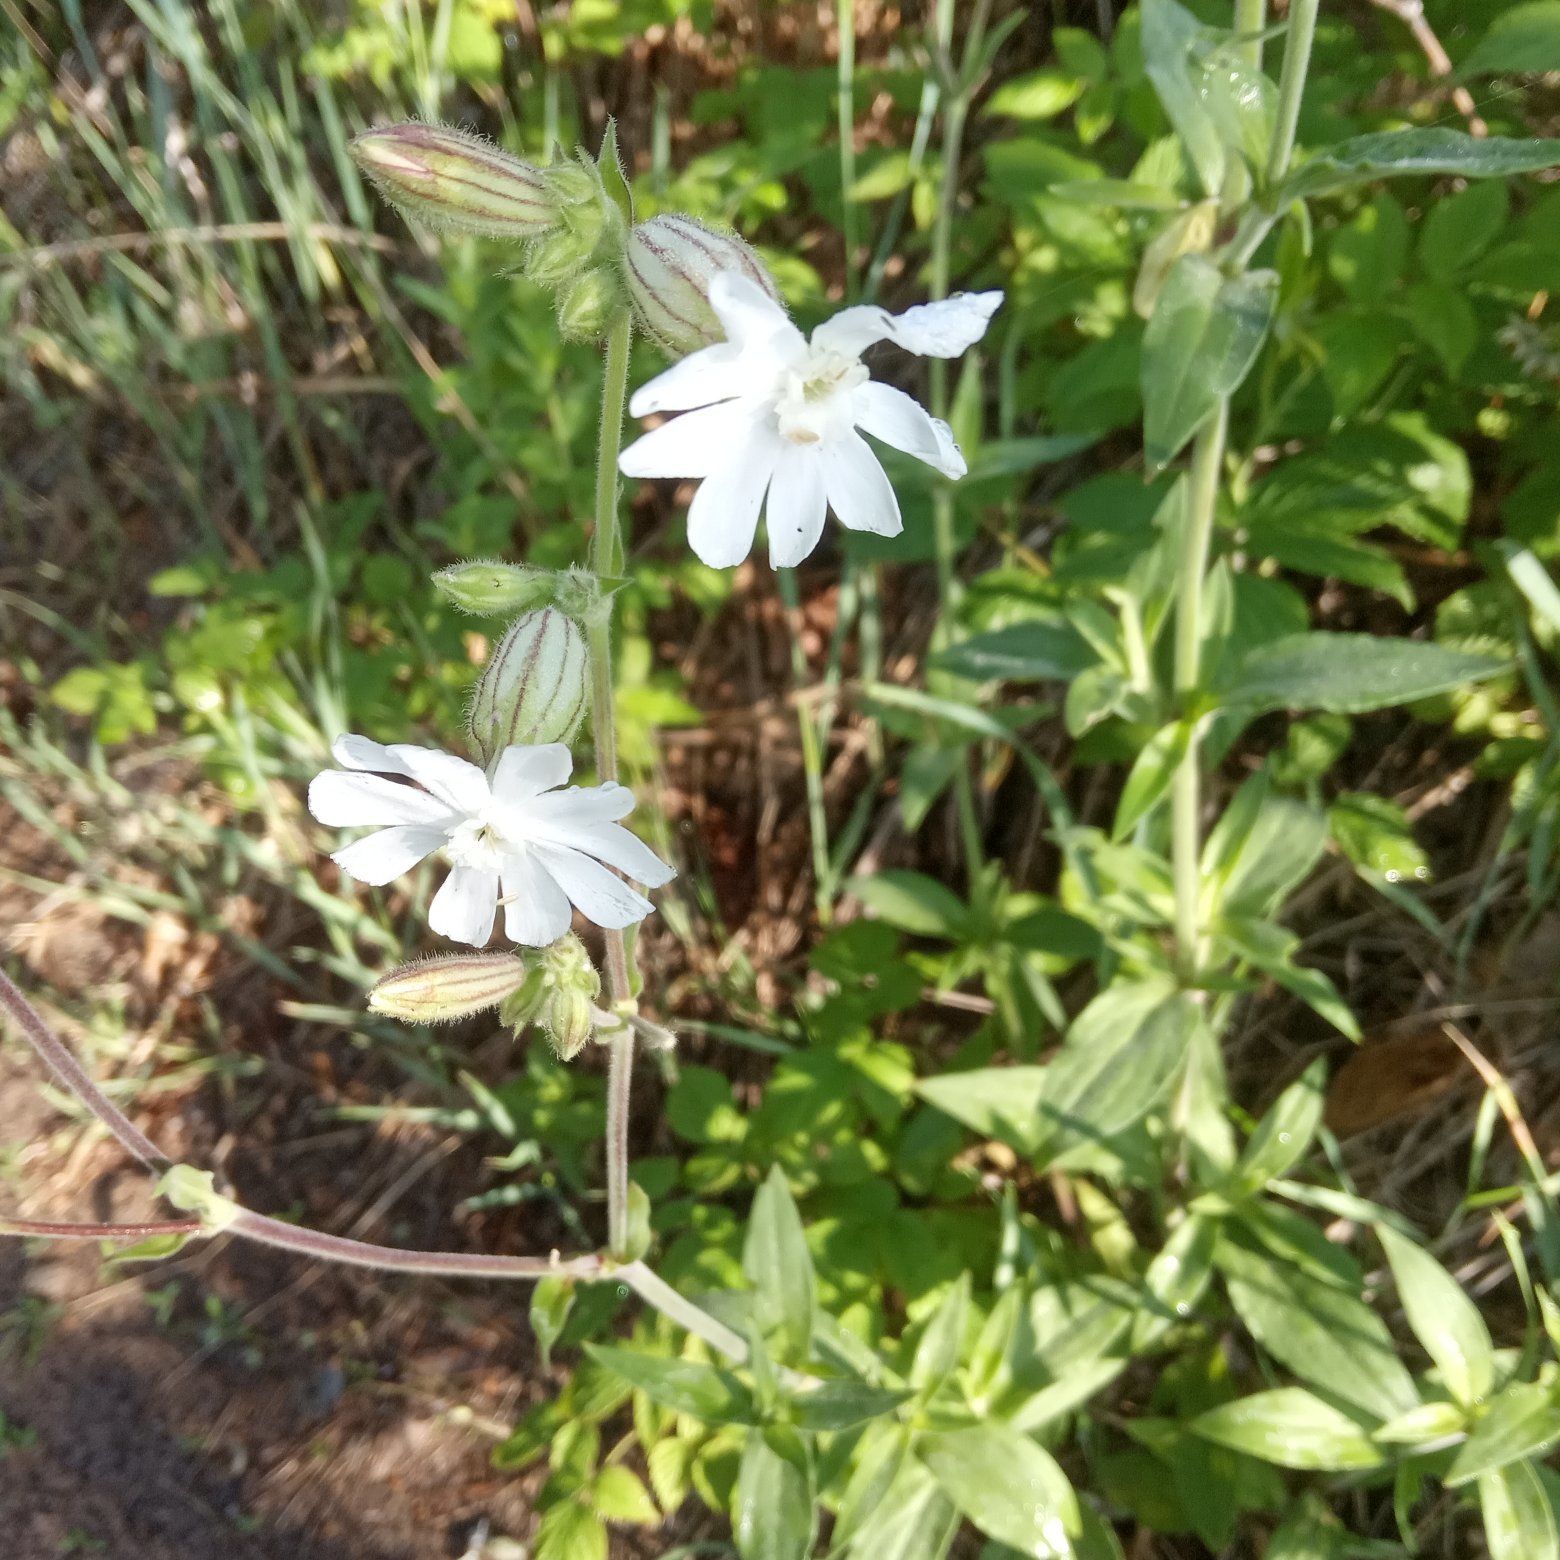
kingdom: Plantae
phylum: Tracheophyta
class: Magnoliopsida
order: Caryophyllales
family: Caryophyllaceae
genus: Silene
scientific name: Silene latifolia
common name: White campion
